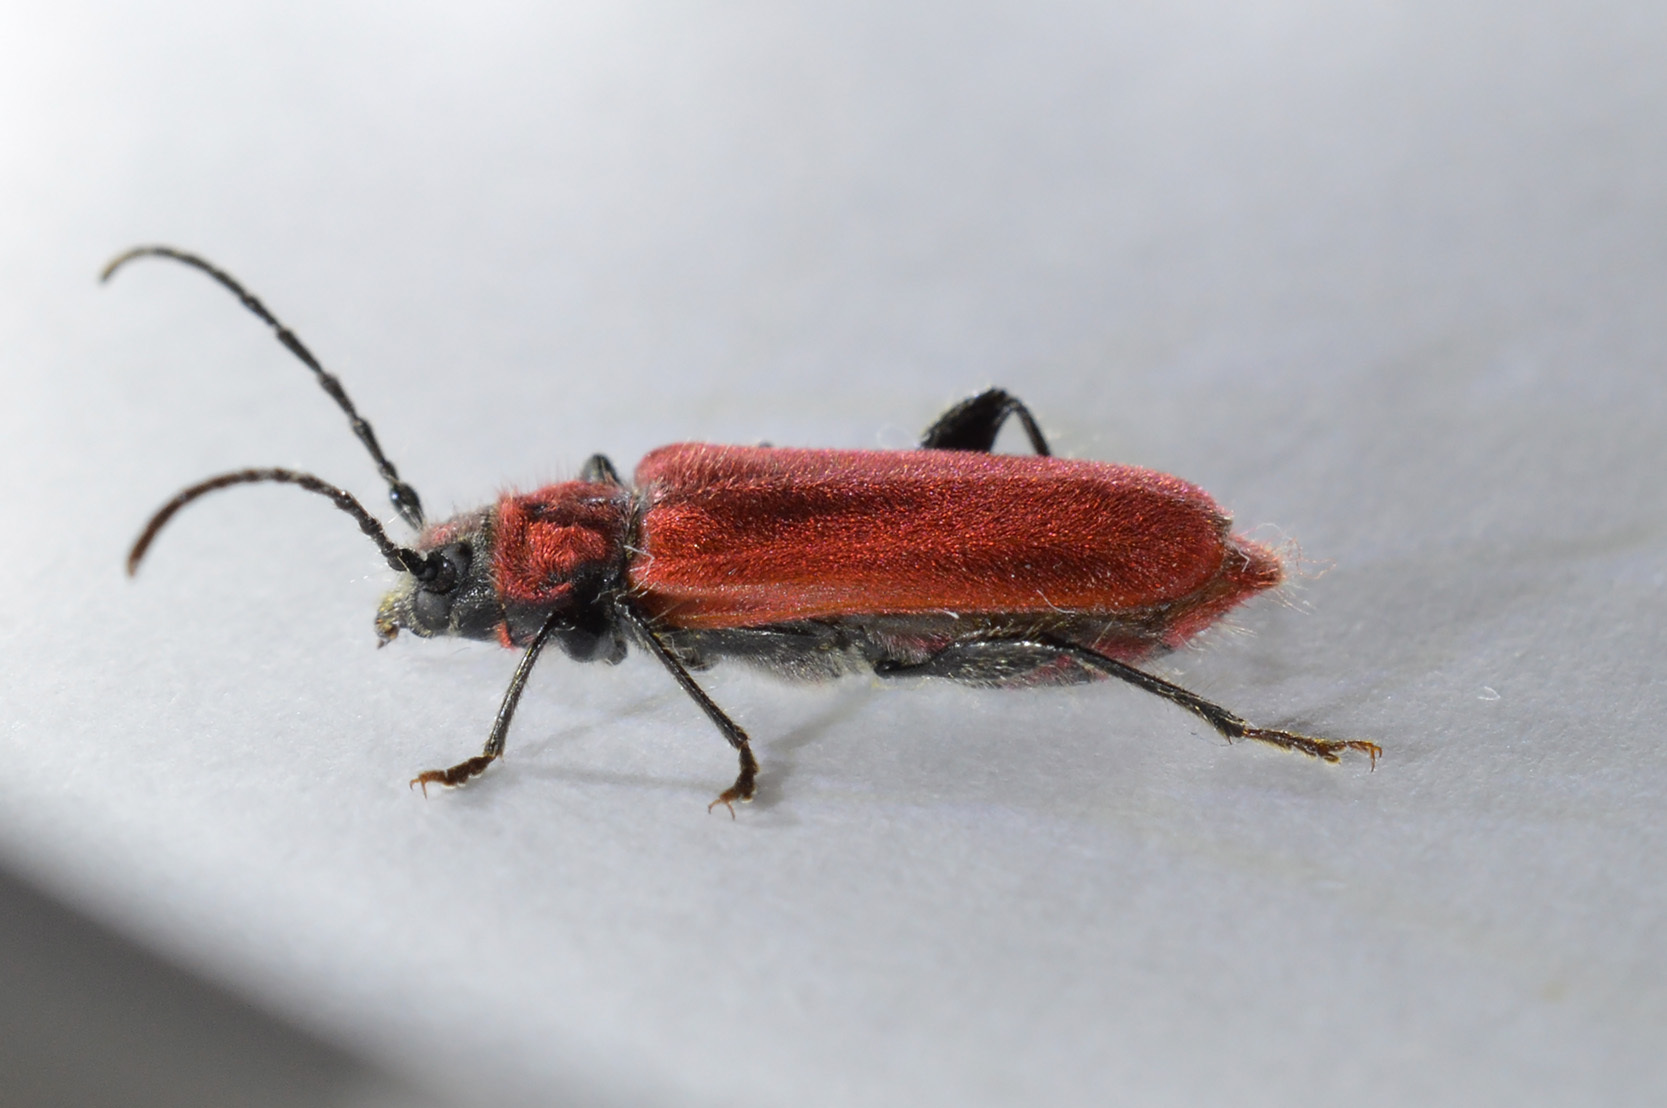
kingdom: Animalia
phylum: Arthropoda
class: Insecta
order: Coleoptera
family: Cerambycidae
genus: Pyrrhidium
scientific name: Pyrrhidium sanguineum
